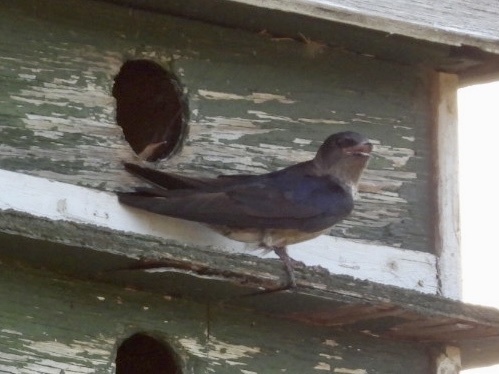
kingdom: Animalia
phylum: Chordata
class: Aves
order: Passeriformes
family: Hirundinidae
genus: Progne
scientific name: Progne subis
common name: Purple martin
